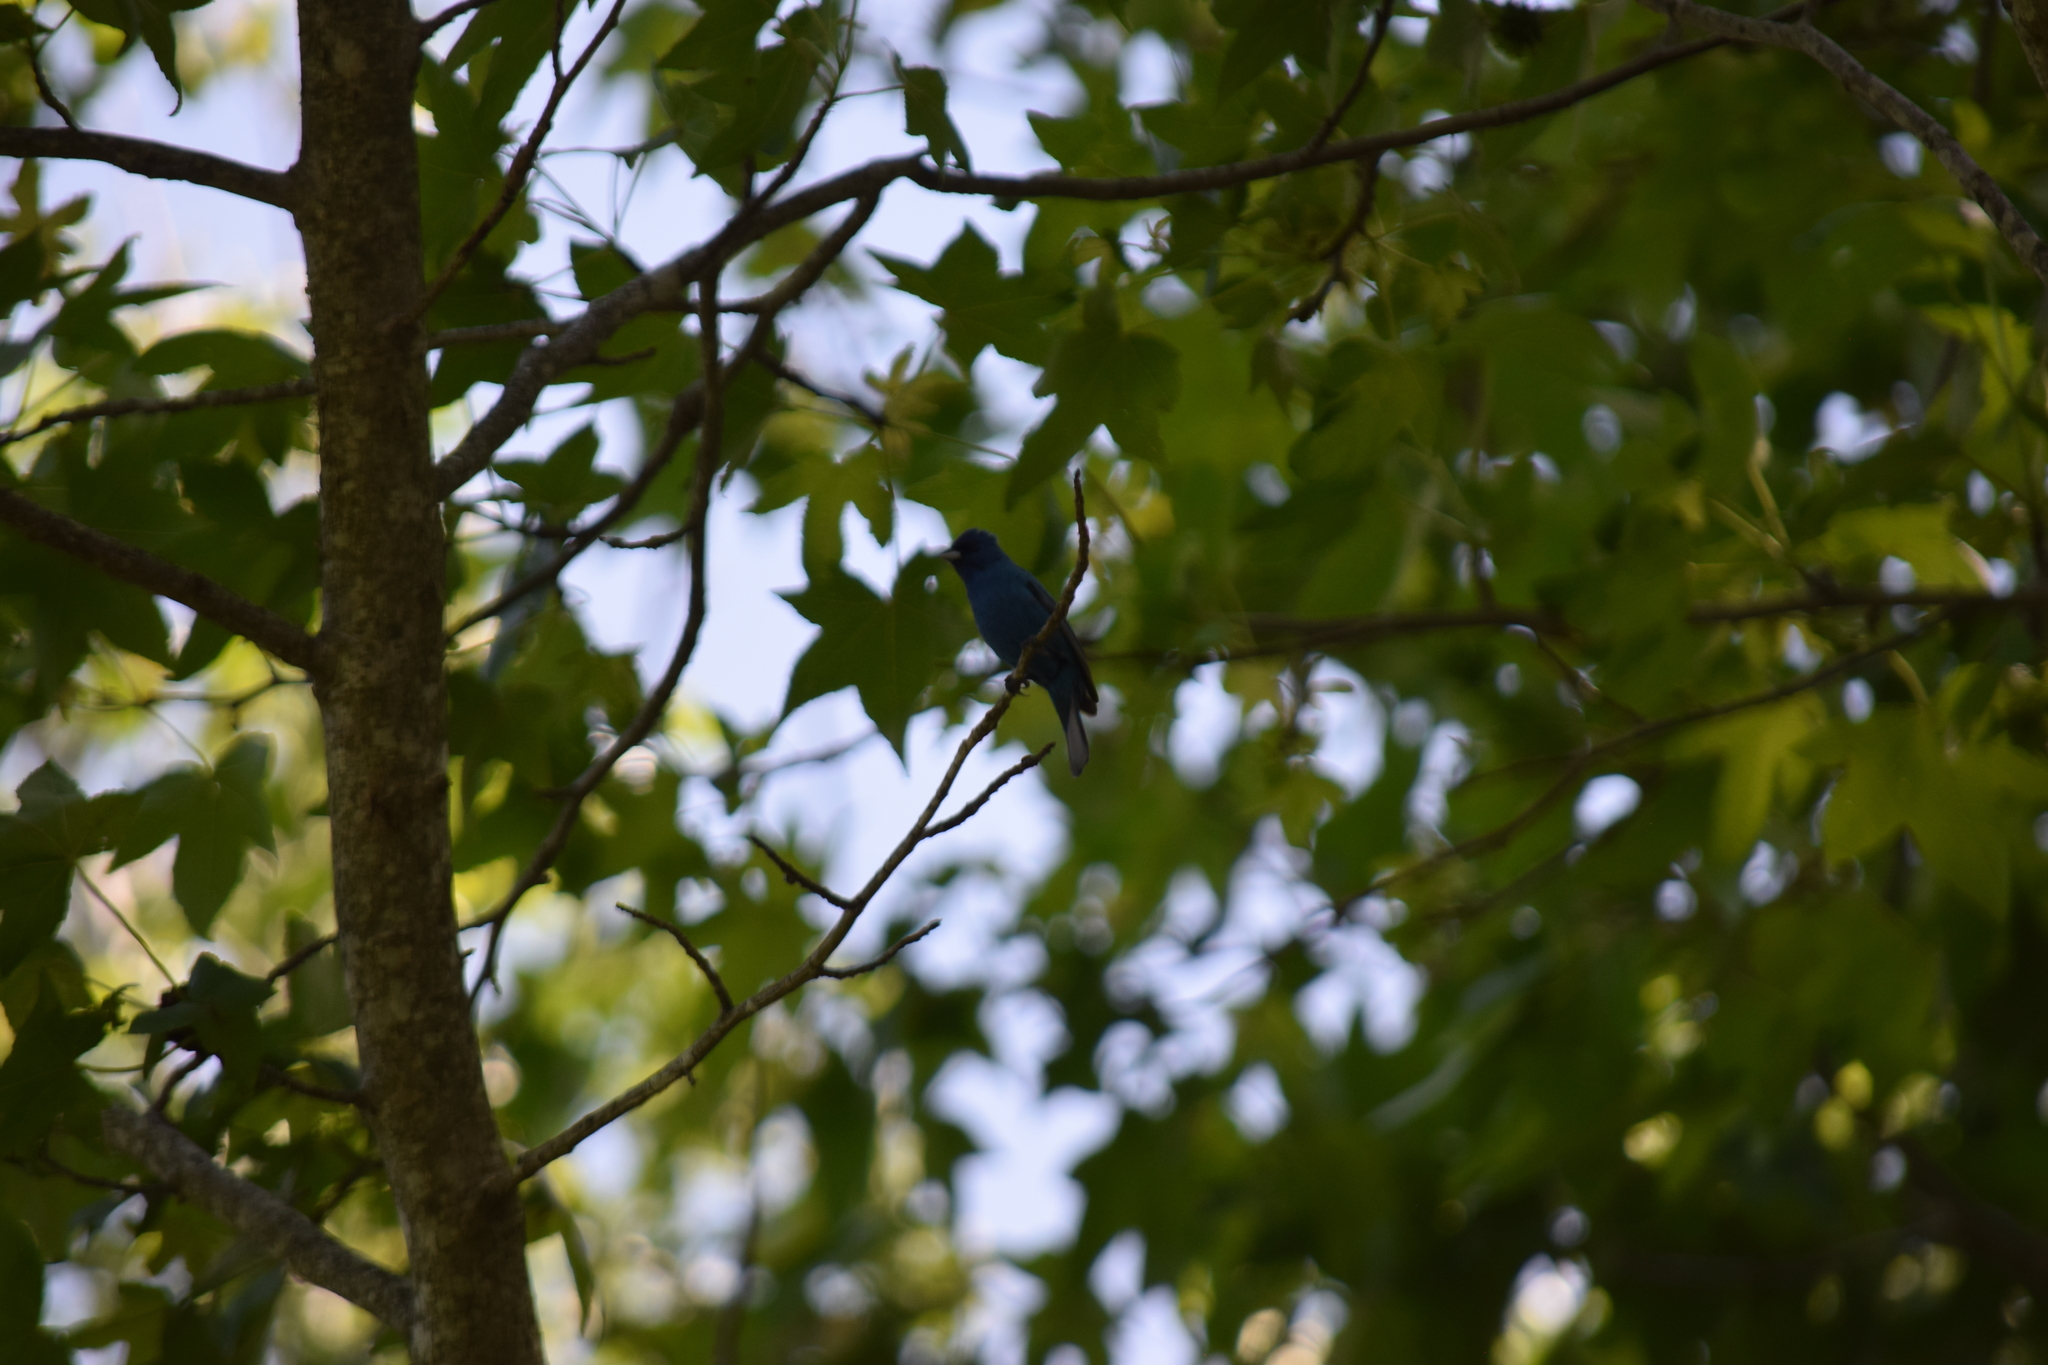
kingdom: Animalia
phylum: Chordata
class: Aves
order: Passeriformes
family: Cardinalidae
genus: Passerina
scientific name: Passerina cyanea
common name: Indigo bunting
